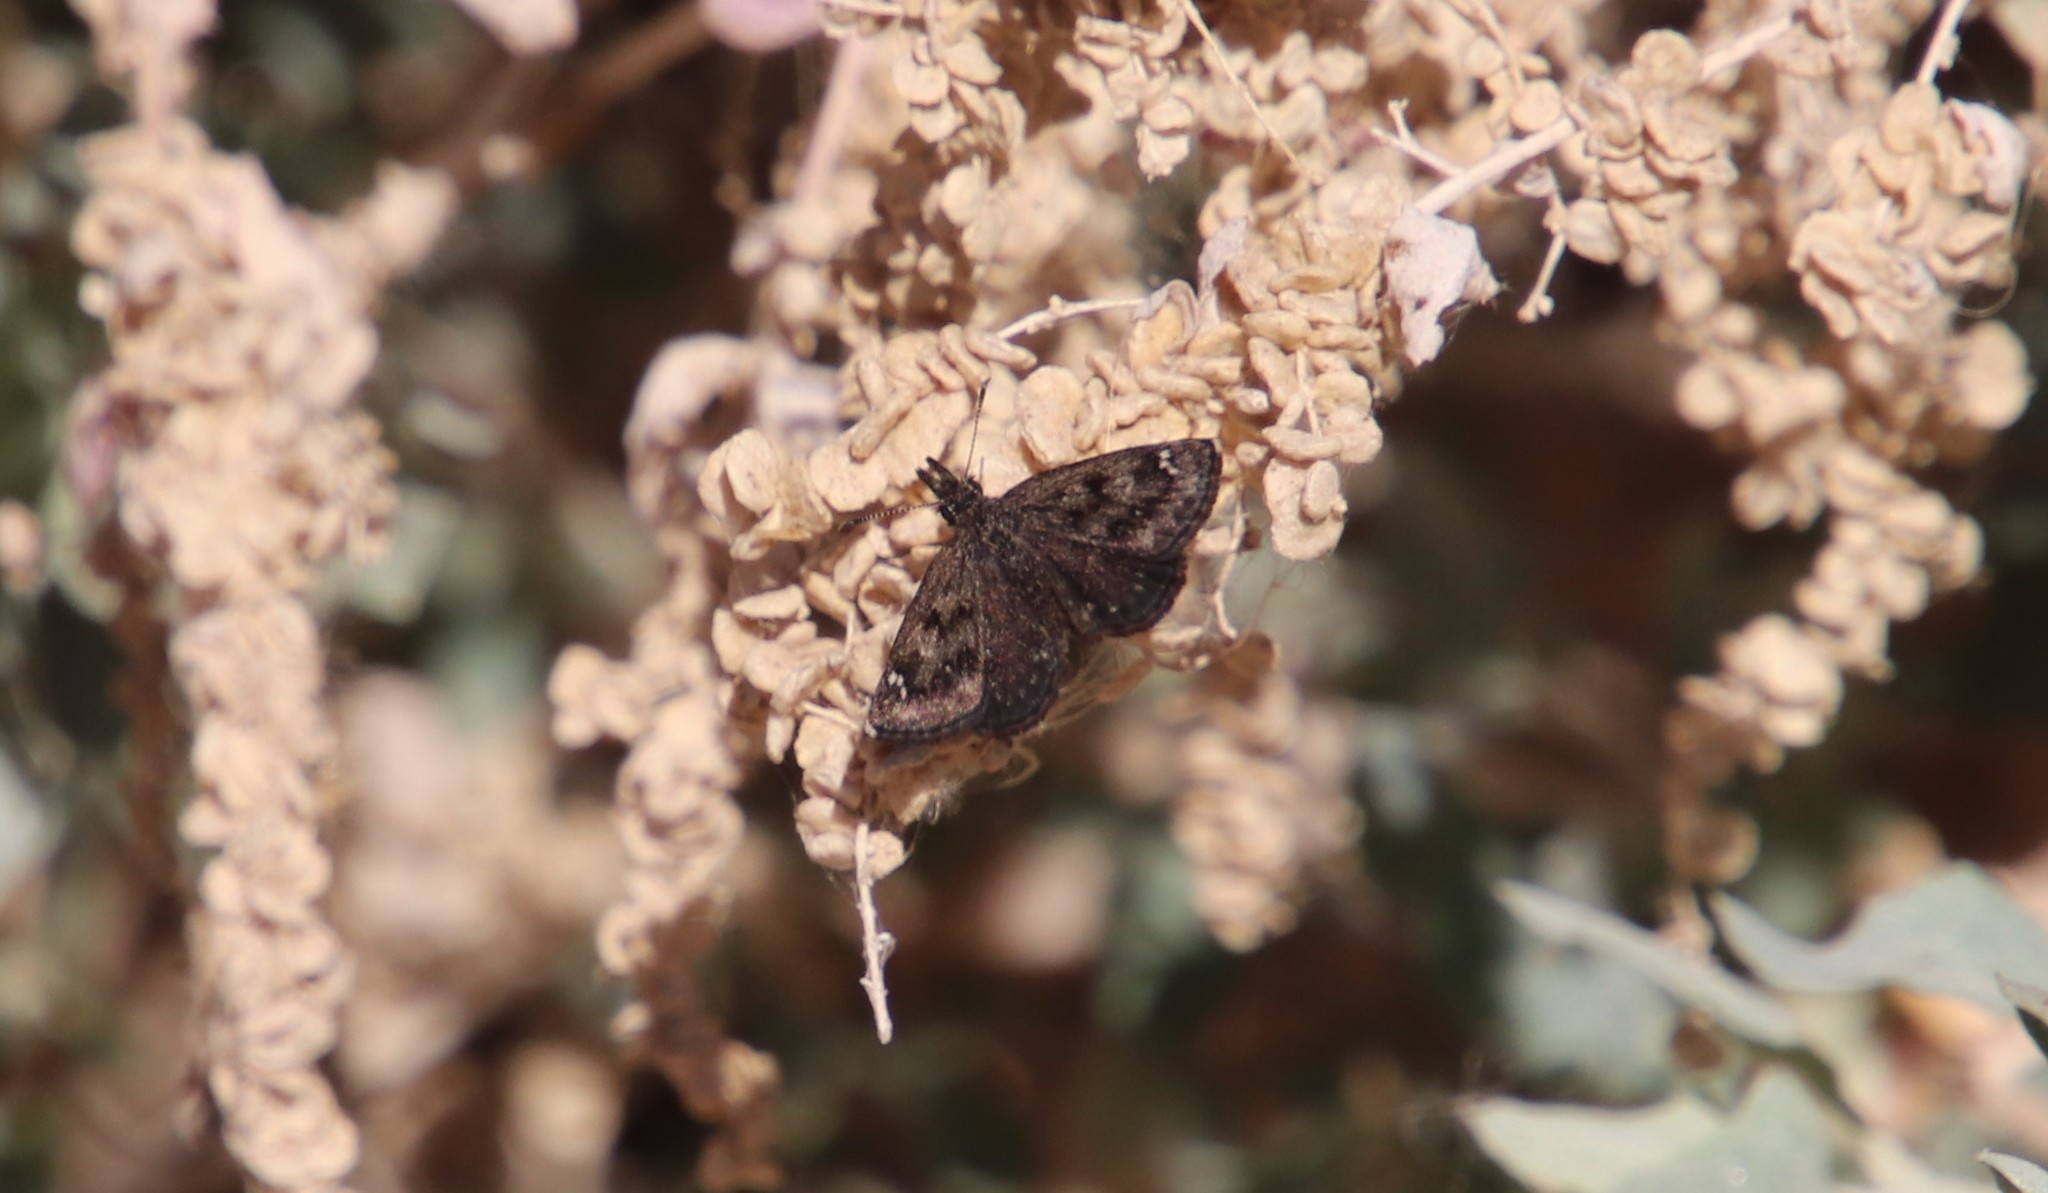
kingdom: Animalia
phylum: Arthropoda
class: Insecta
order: Lepidoptera
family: Hesperiidae
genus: Pholisora
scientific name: Pholisora gracielae
